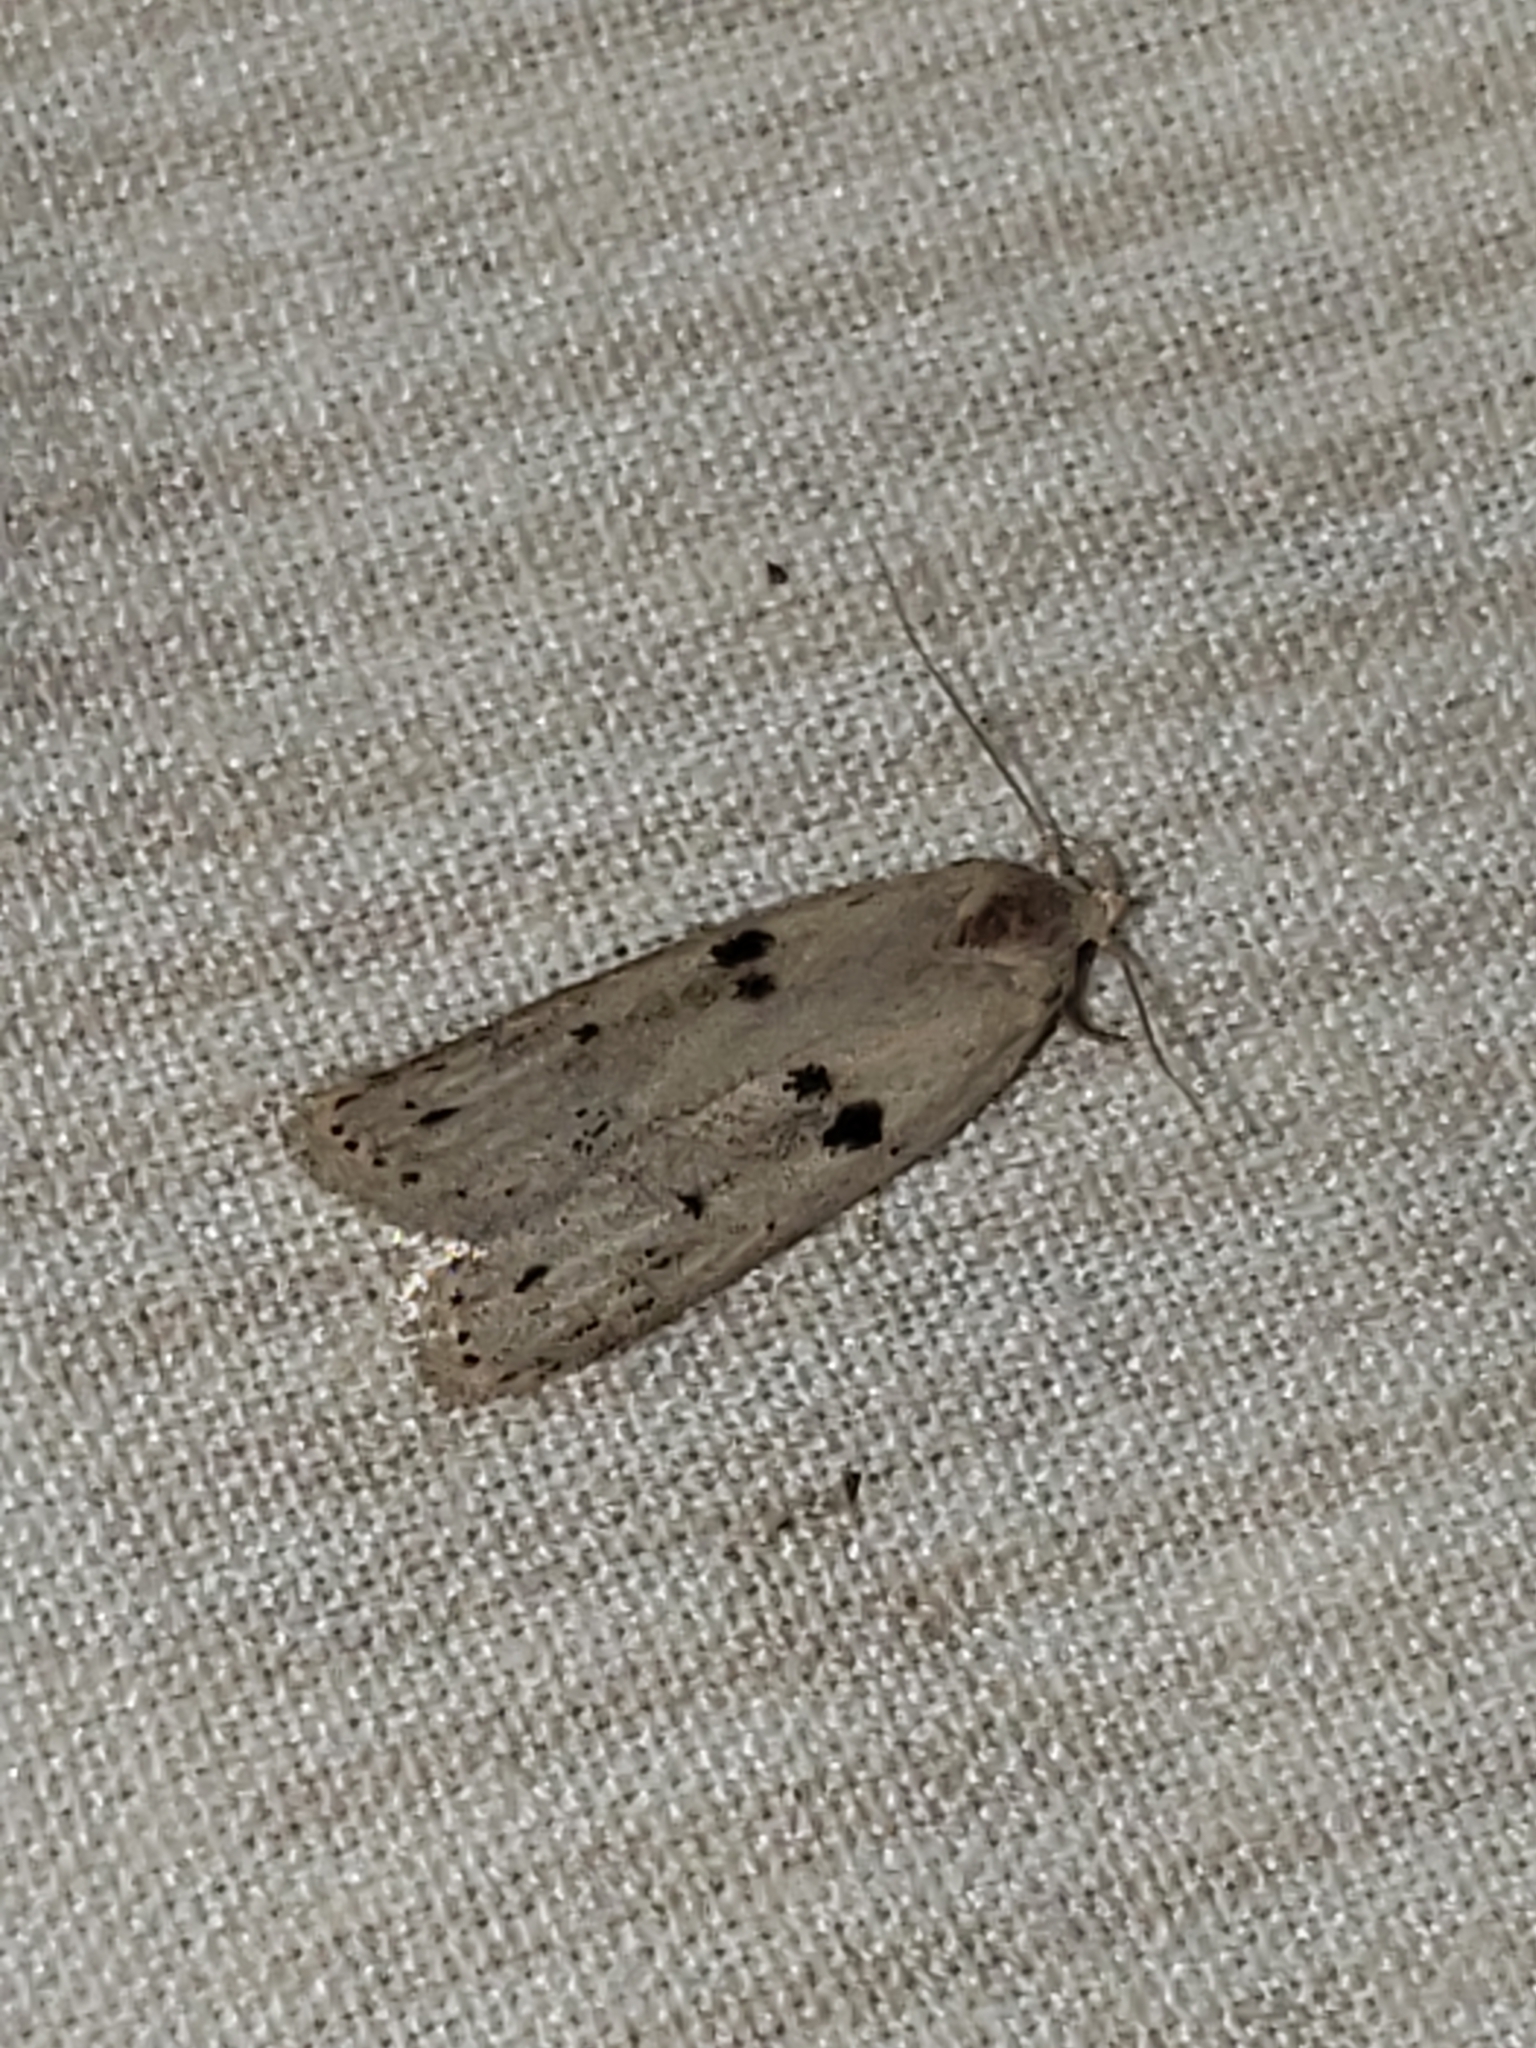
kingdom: Animalia
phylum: Arthropoda
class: Insecta
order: Lepidoptera
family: Peleopodidae
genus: Scythropiodes
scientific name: Scythropiodes issikii
